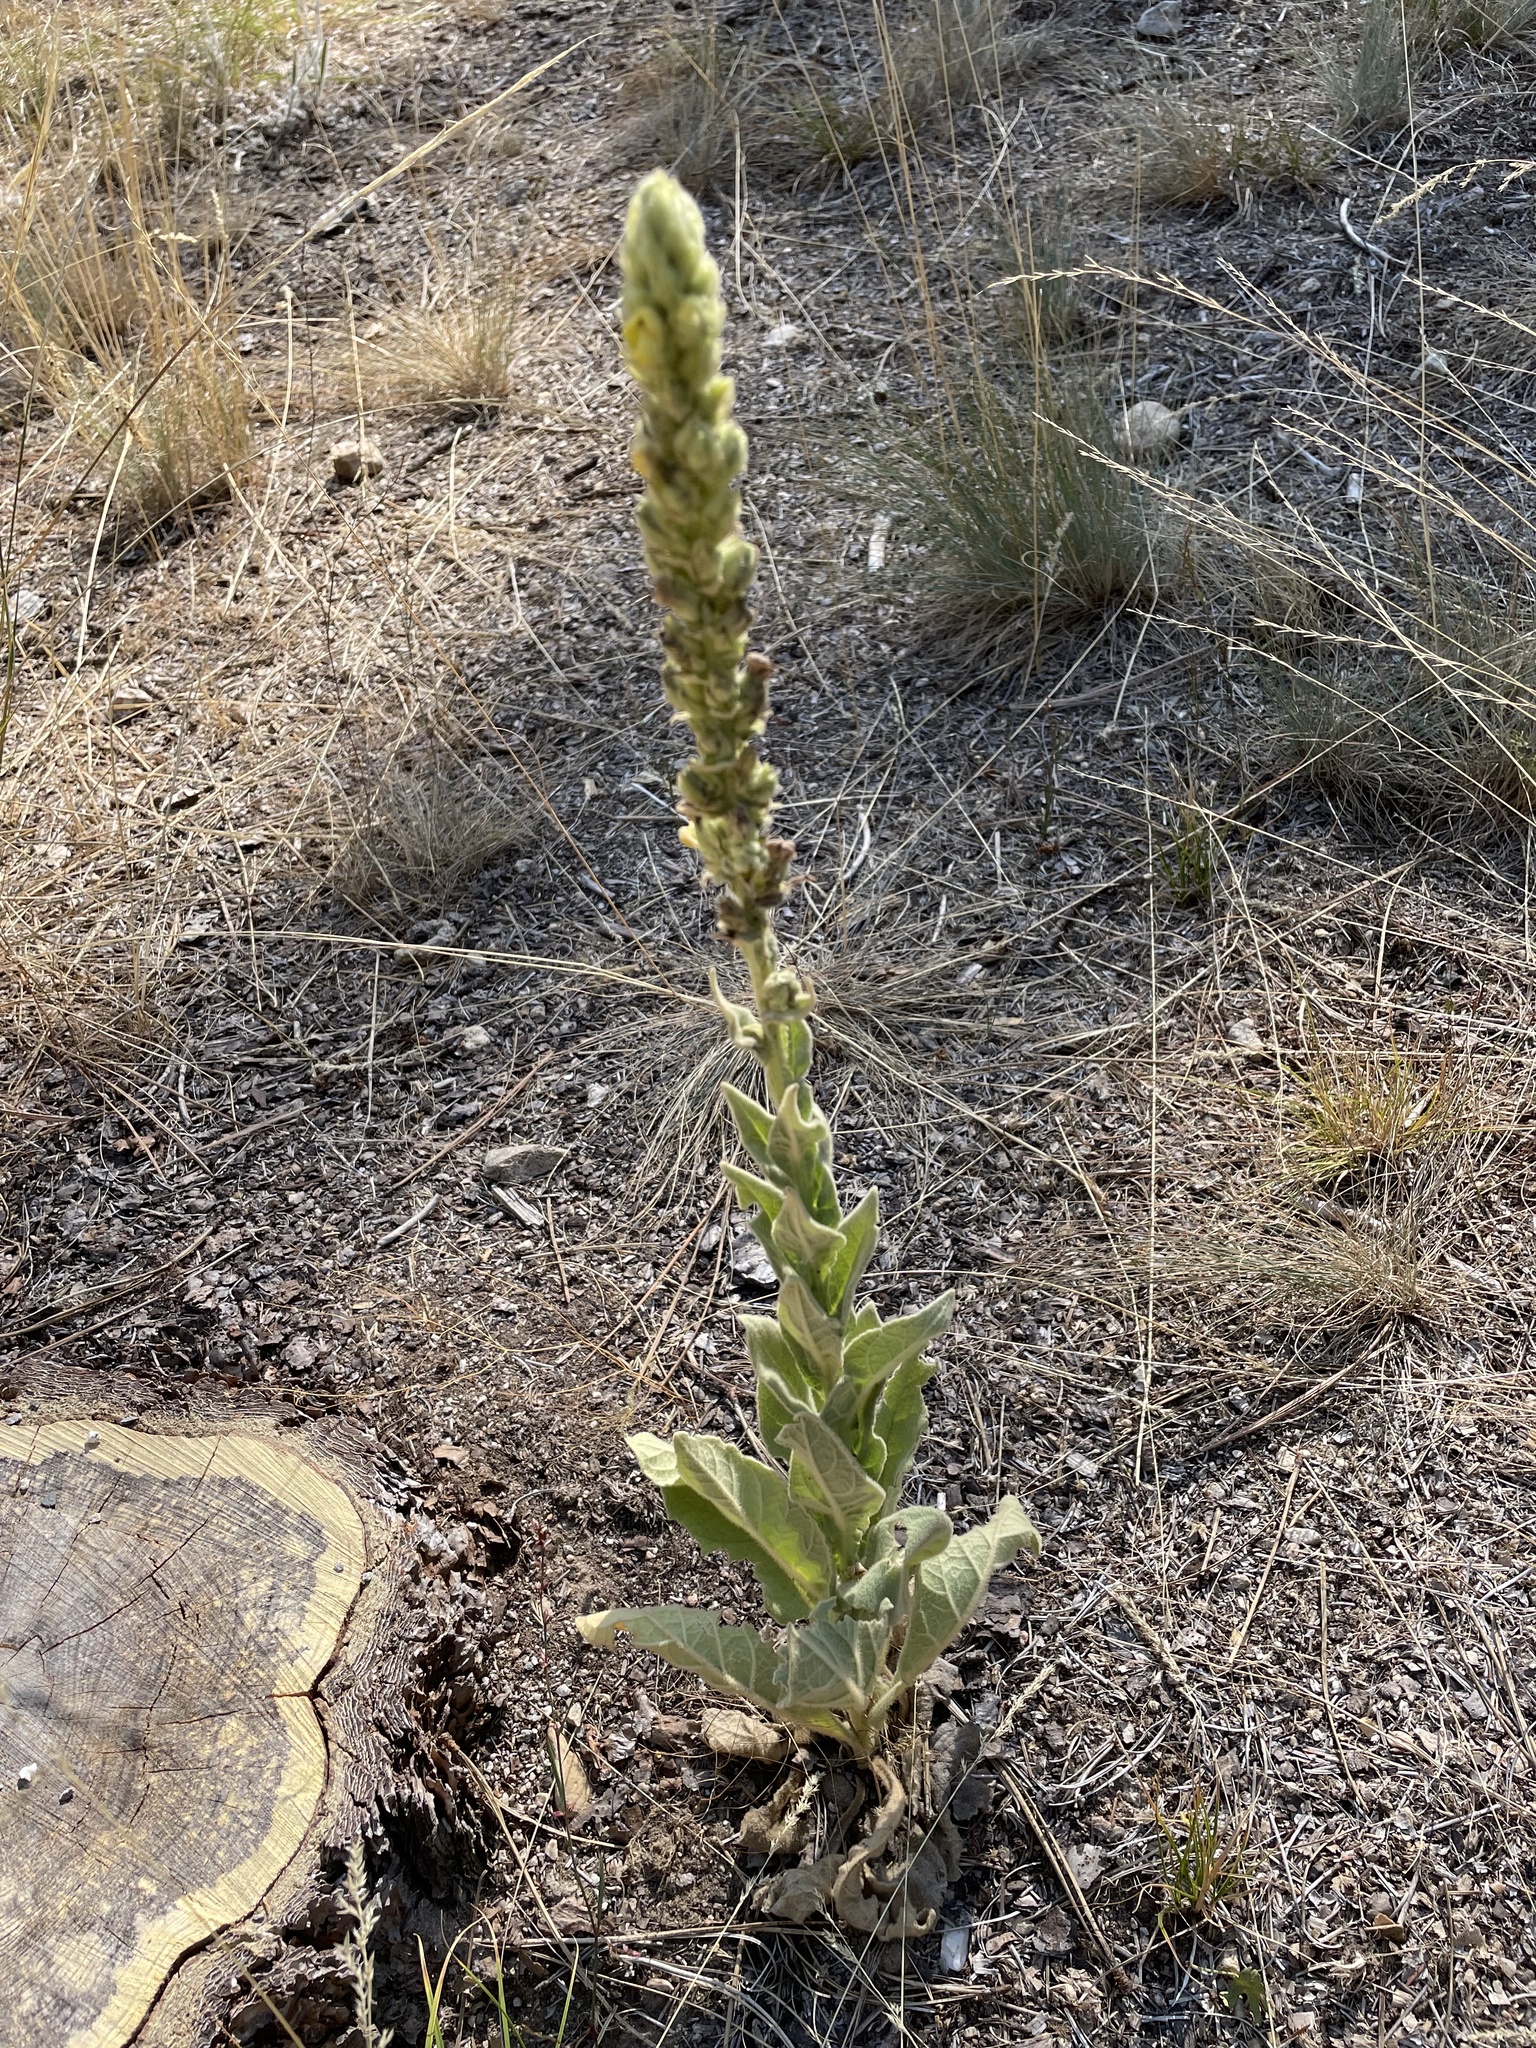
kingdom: Plantae
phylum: Tracheophyta
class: Magnoliopsida
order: Lamiales
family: Scrophulariaceae
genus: Verbascum
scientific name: Verbascum thapsus
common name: Common mullein
